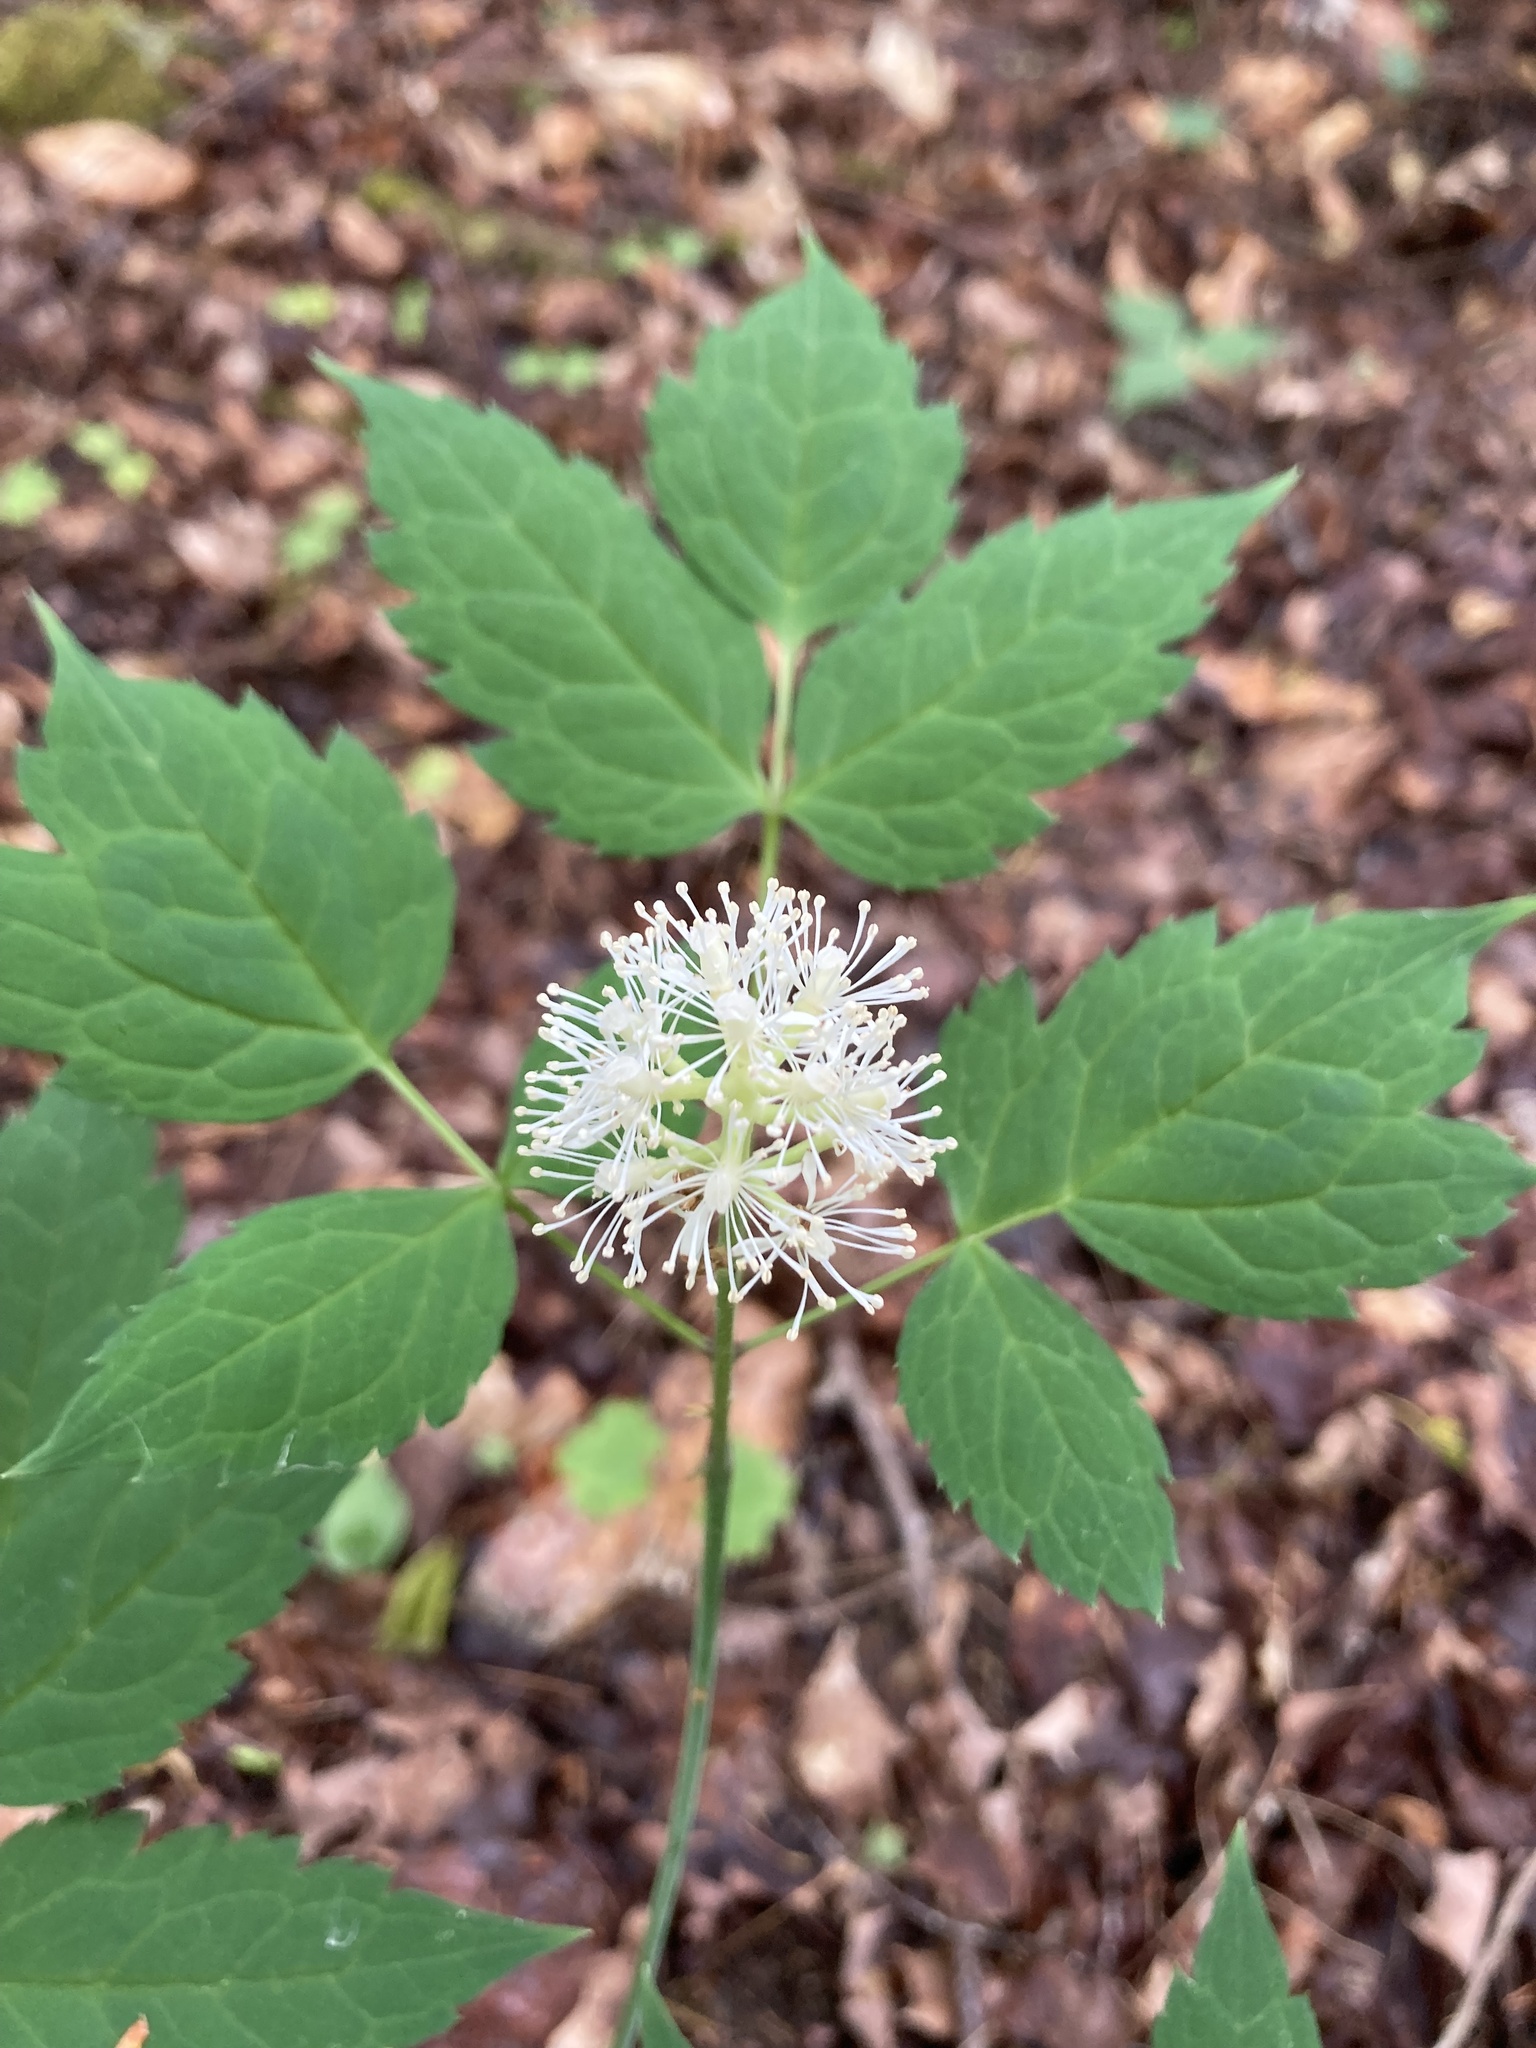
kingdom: Plantae
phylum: Tracheophyta
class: Magnoliopsida
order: Ranunculales
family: Ranunculaceae
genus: Actaea
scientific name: Actaea pachypoda
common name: Doll's-eyes
